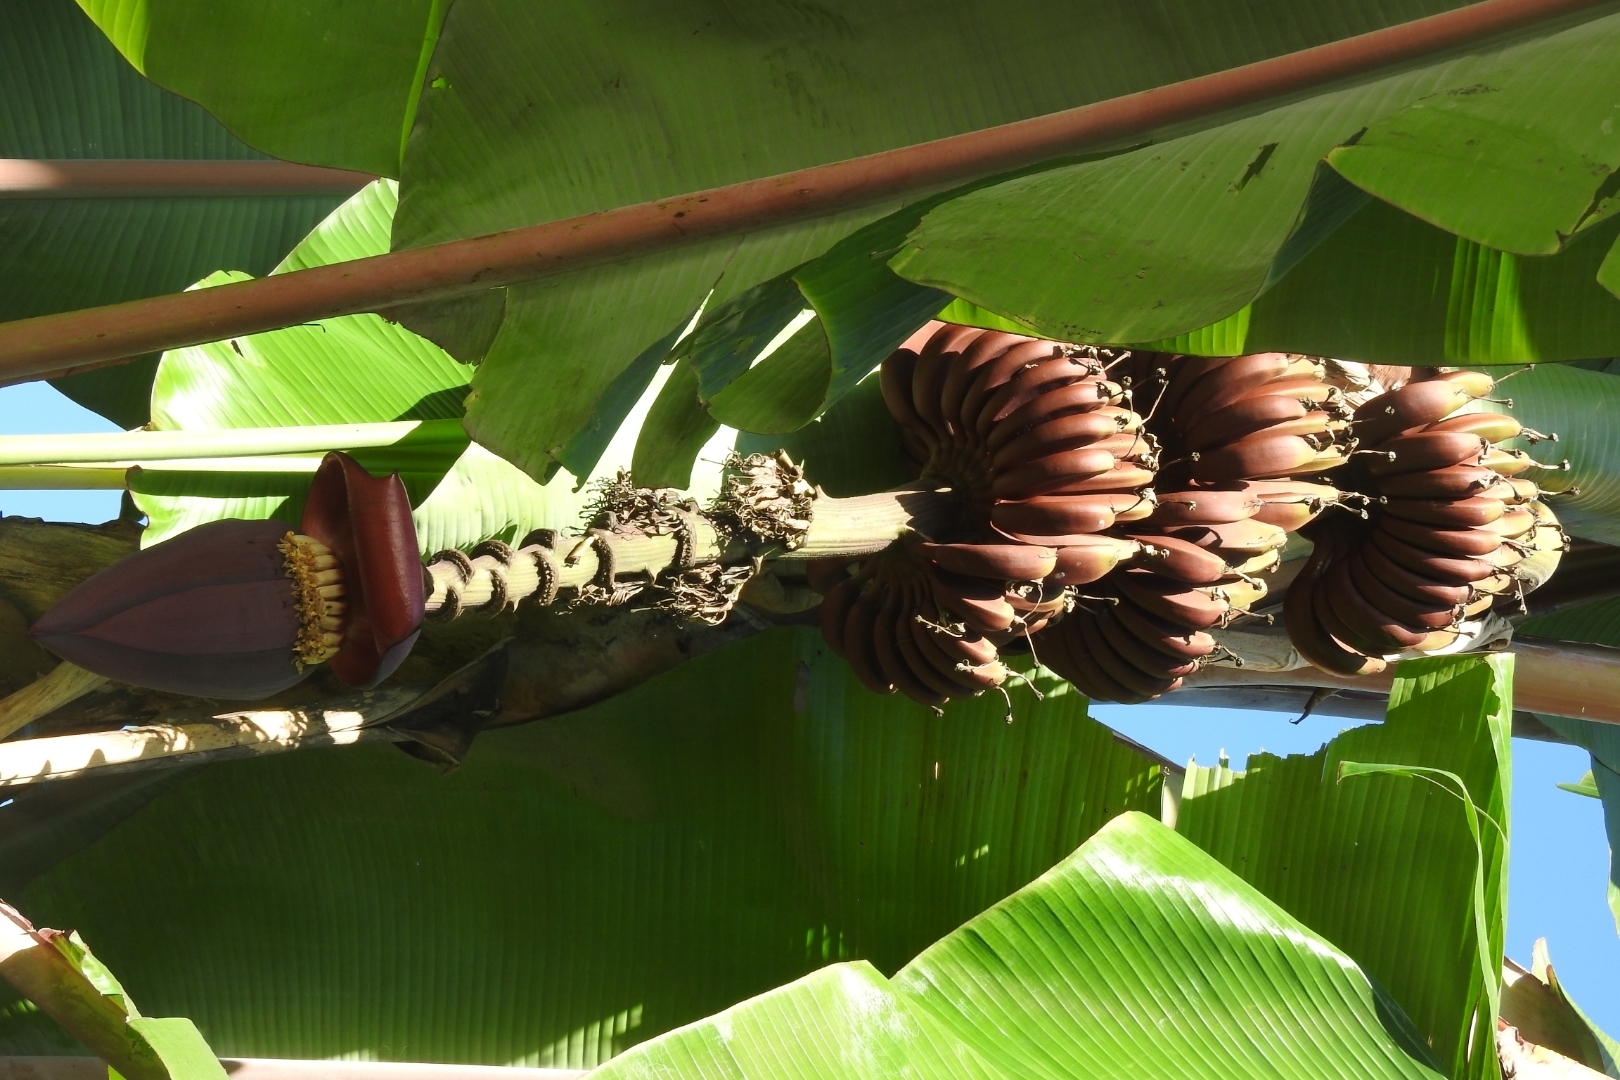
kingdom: Plantae
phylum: Tracheophyta
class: Liliopsida
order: Zingiberales
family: Musaceae
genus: Musa
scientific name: Musa acuminata
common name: Edible banana
